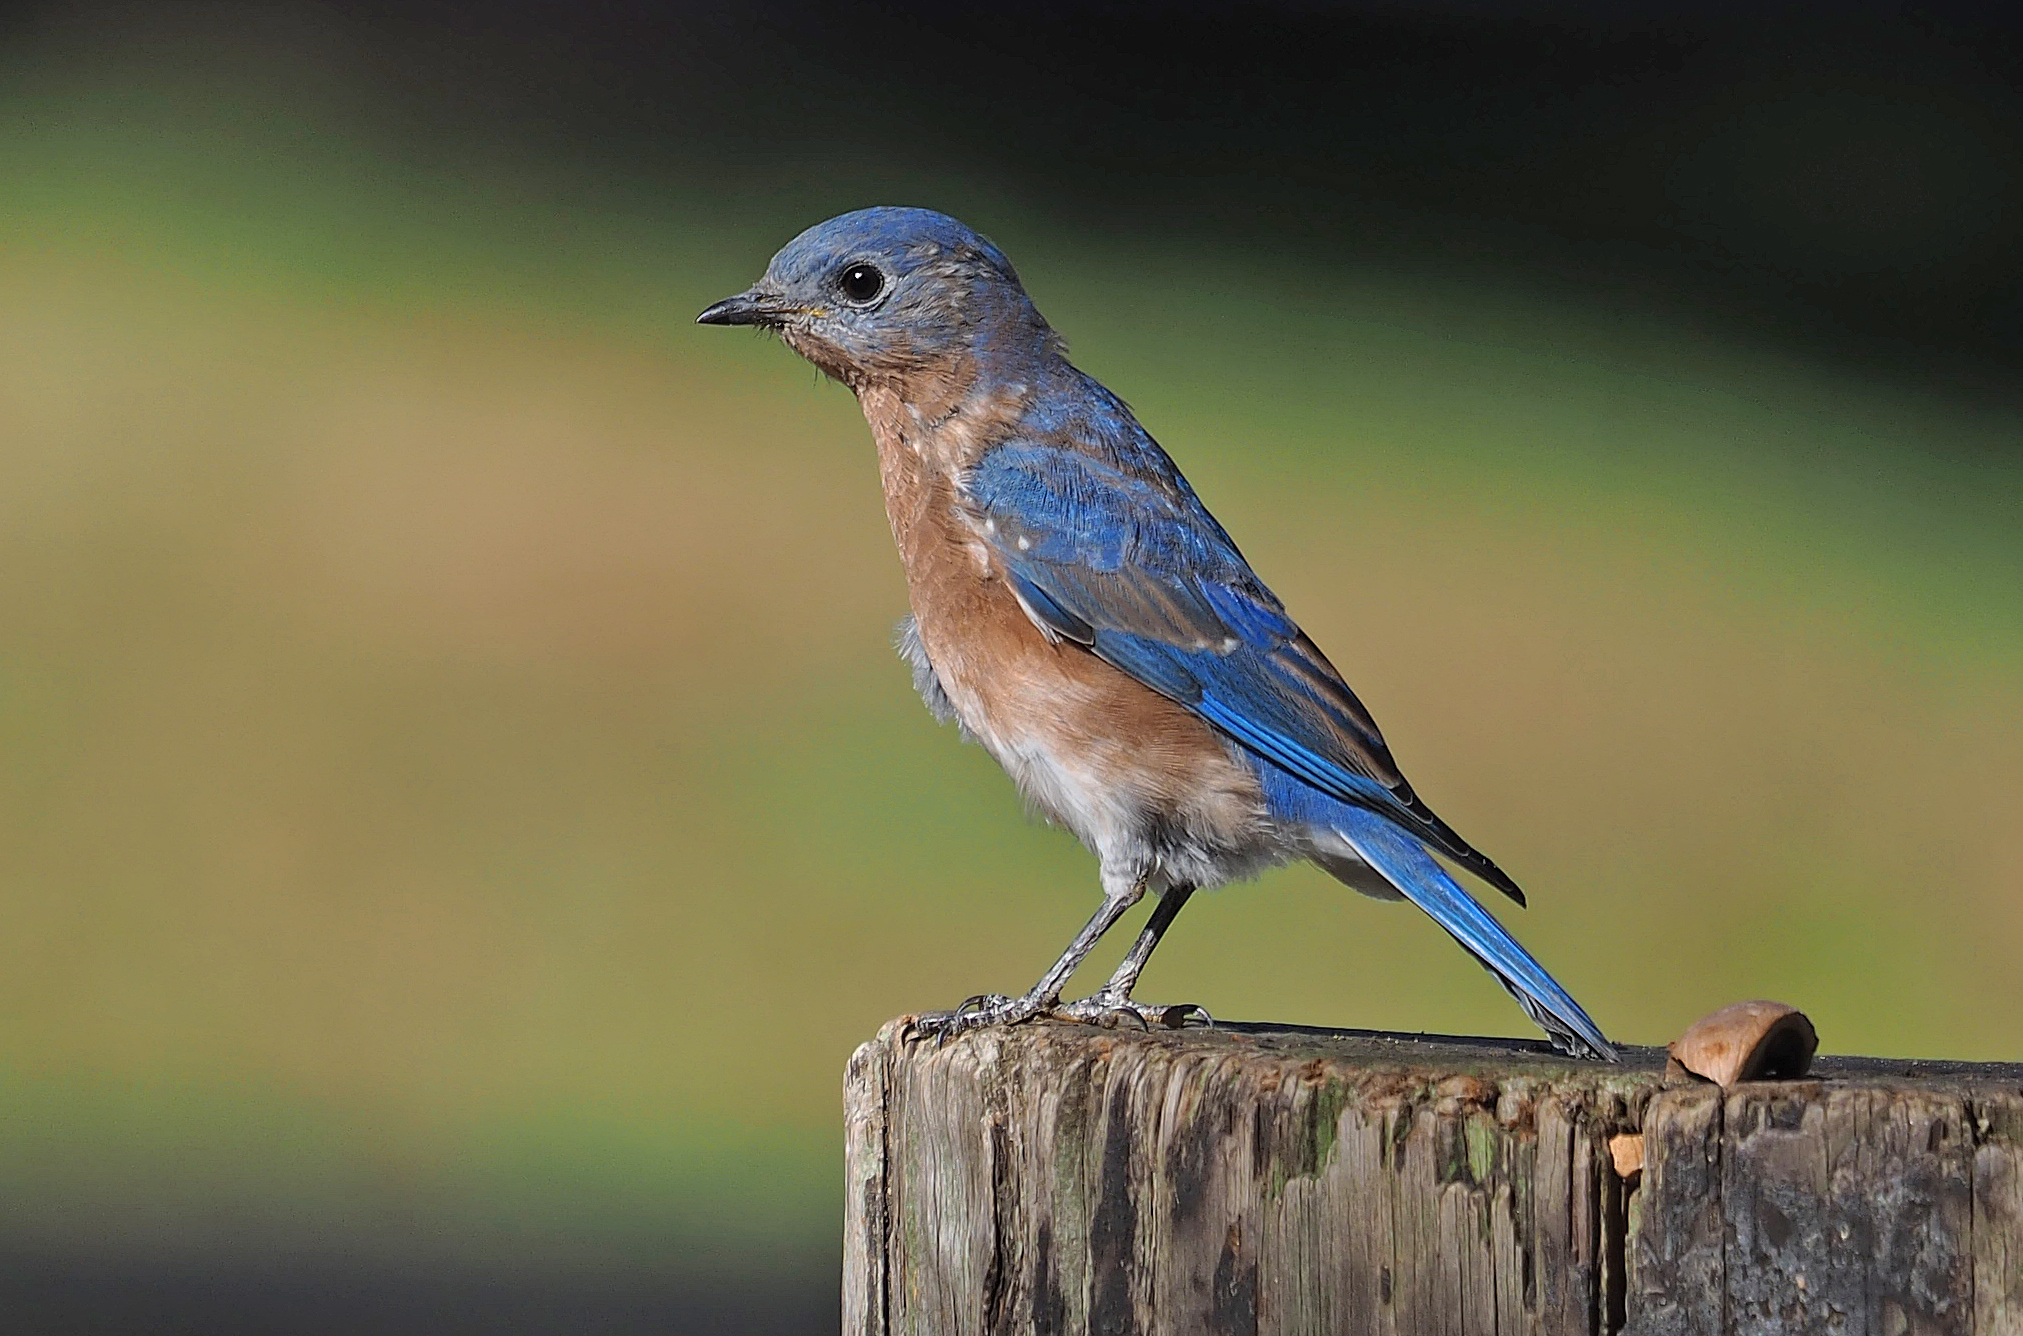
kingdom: Animalia
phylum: Chordata
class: Aves
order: Passeriformes
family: Turdidae
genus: Sialia
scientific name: Sialia sialis
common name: Eastern bluebird
